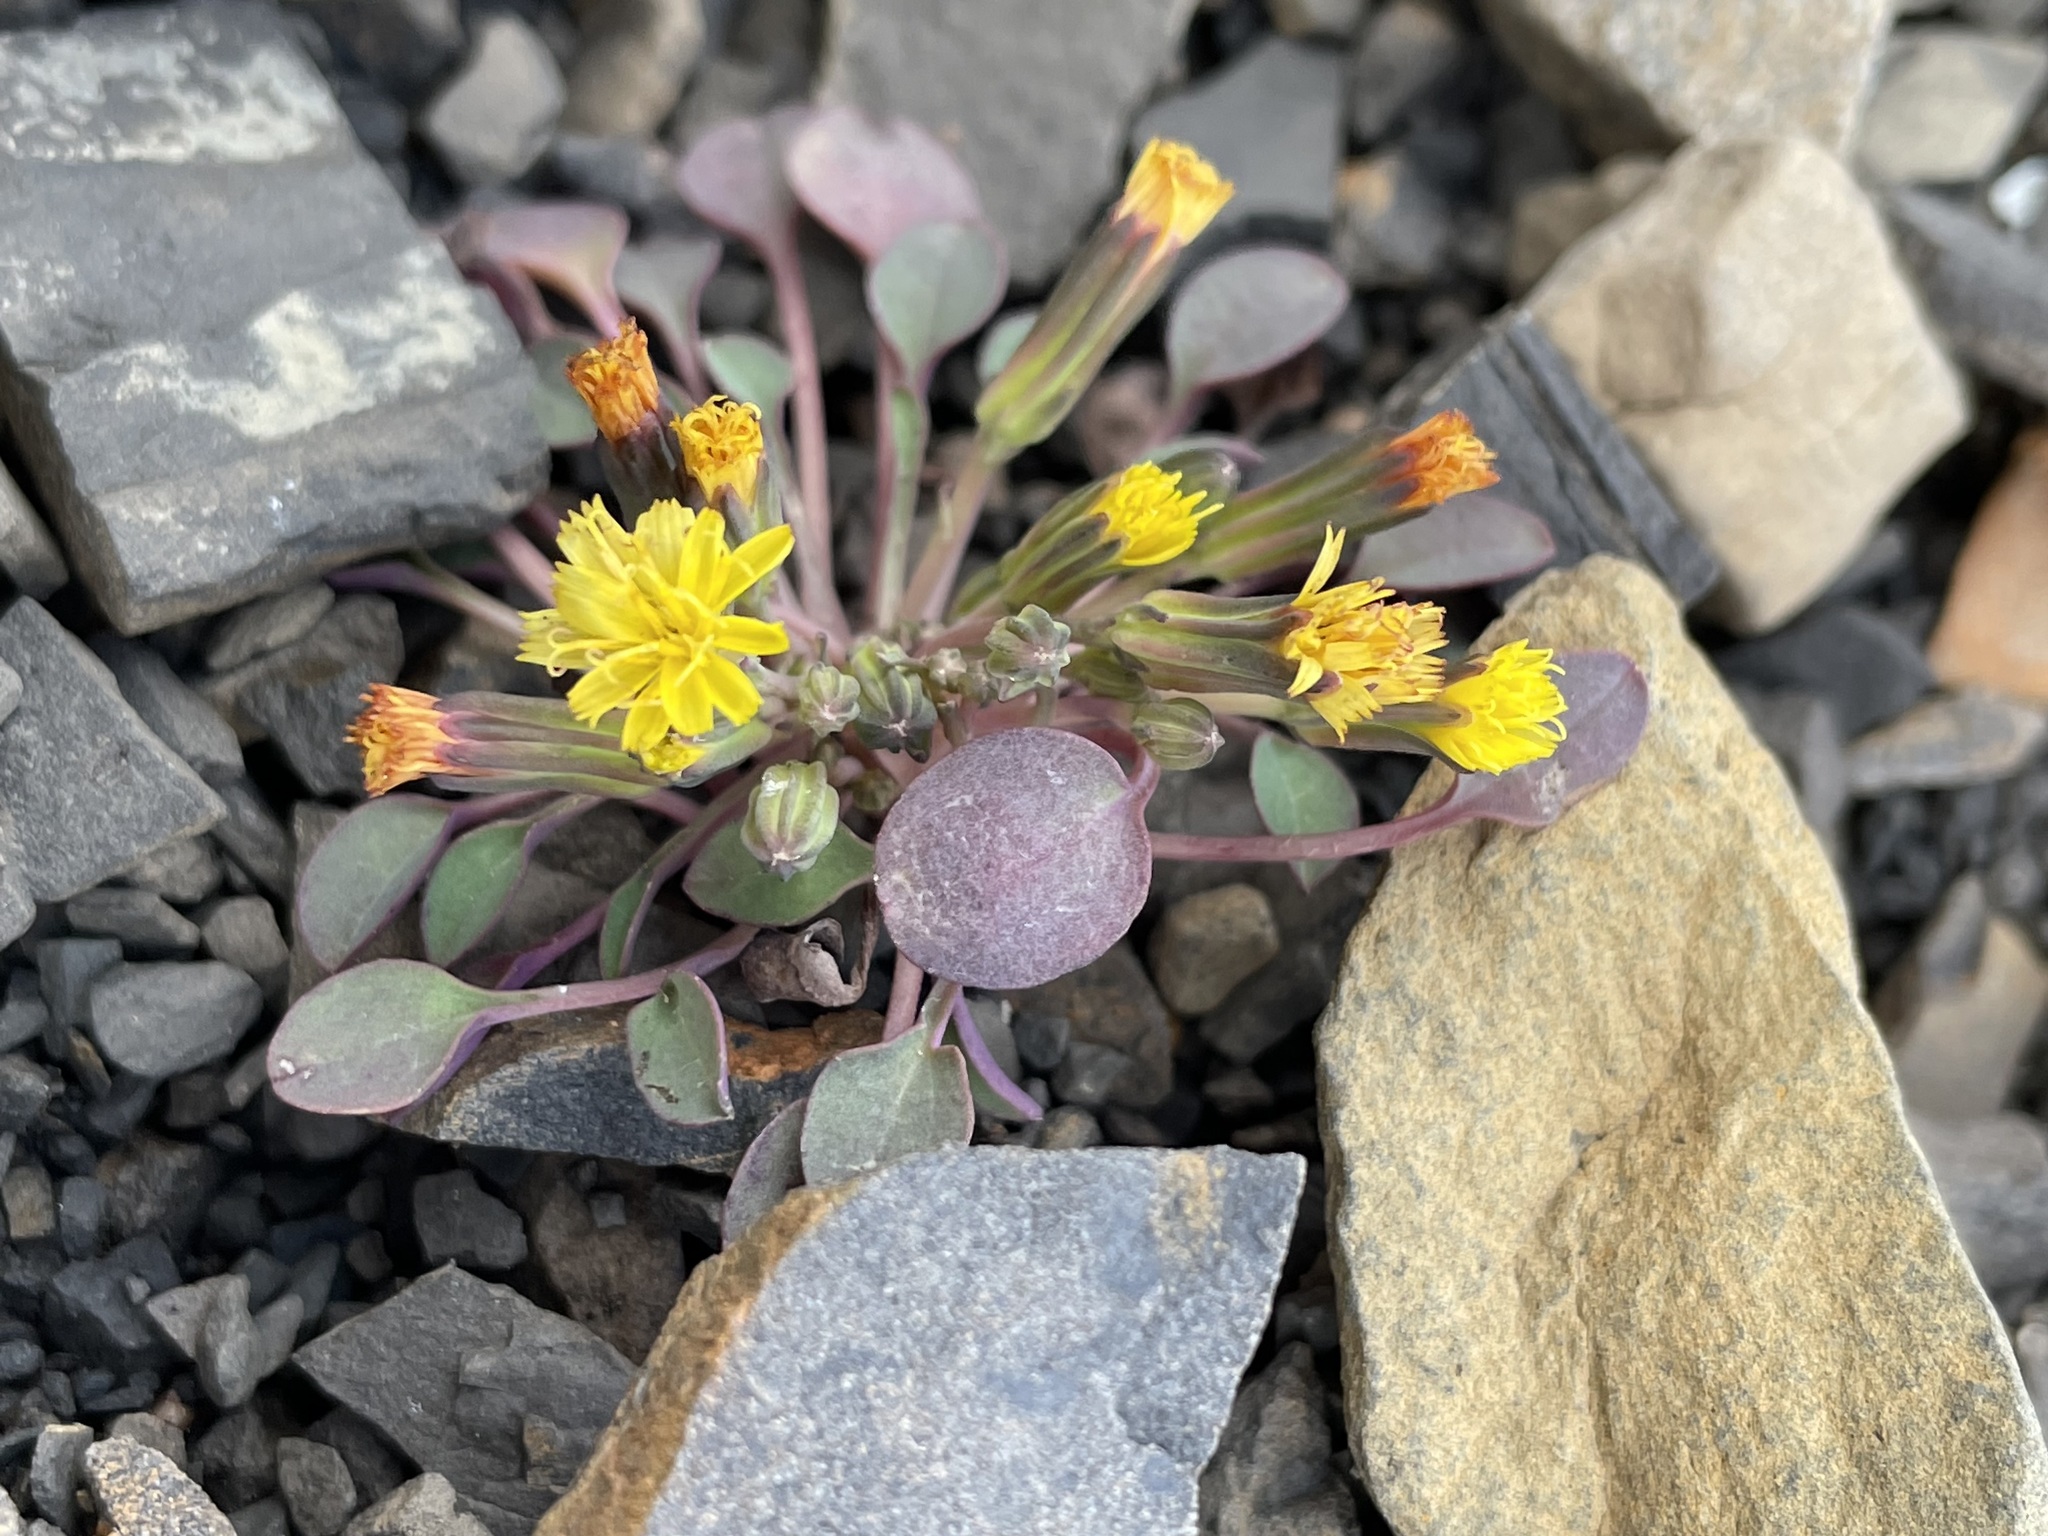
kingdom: Plantae
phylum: Tracheophyta
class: Magnoliopsida
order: Asterales
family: Asteraceae
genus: Askellia
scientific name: Askellia pygmaea
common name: Dwarf alpine hawksbeard
